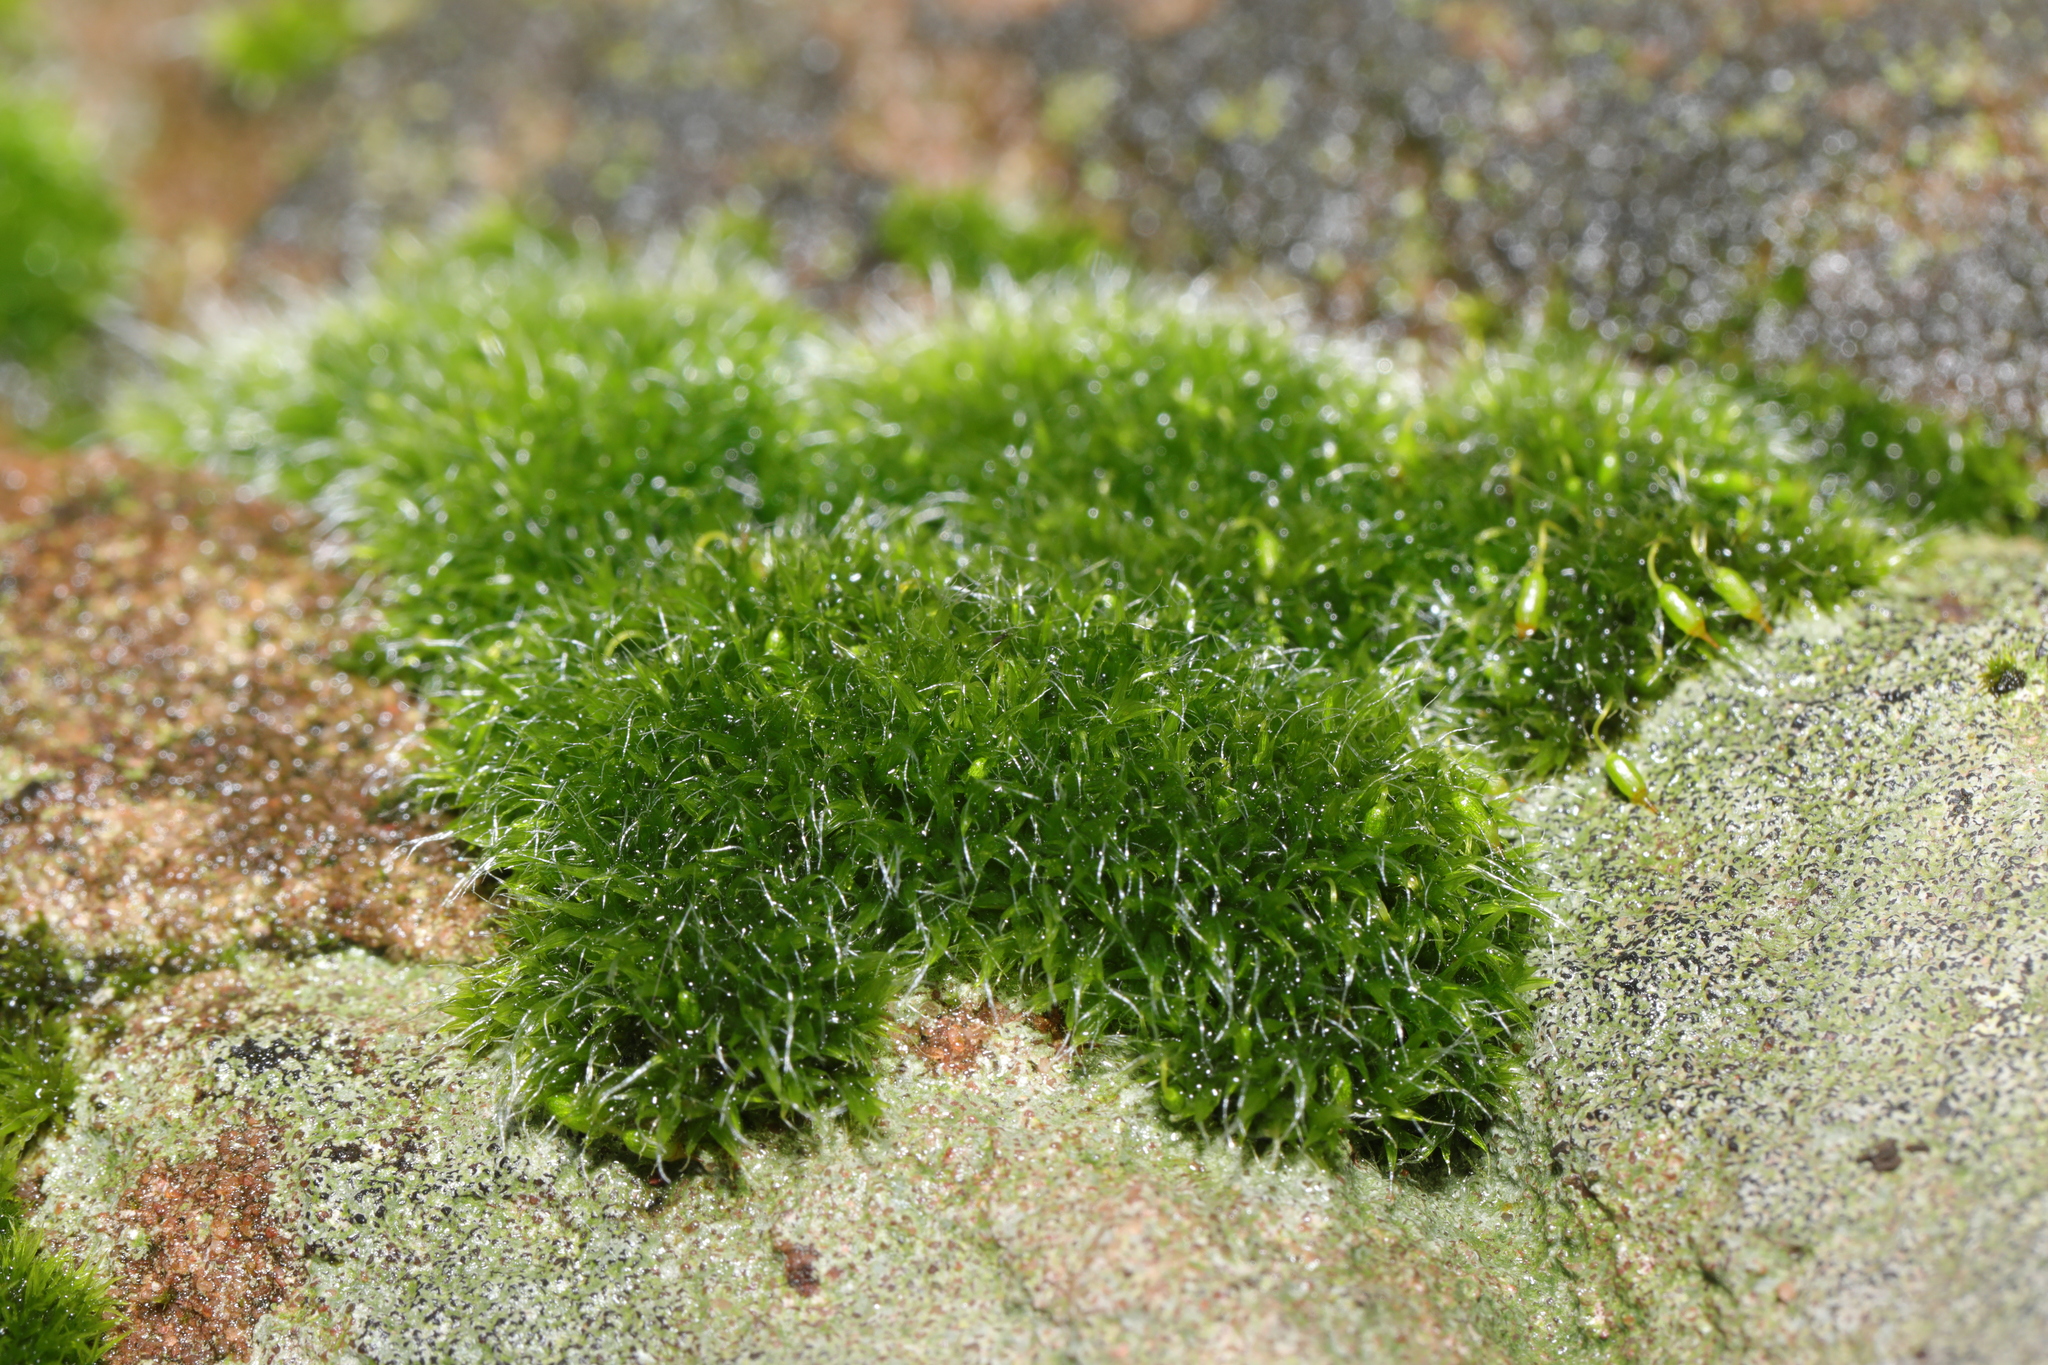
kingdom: Plantae
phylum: Bryophyta
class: Bryopsida
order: Grimmiales
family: Grimmiaceae
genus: Grimmia
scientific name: Grimmia pulvinata
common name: Grey-cushioned grimmia
